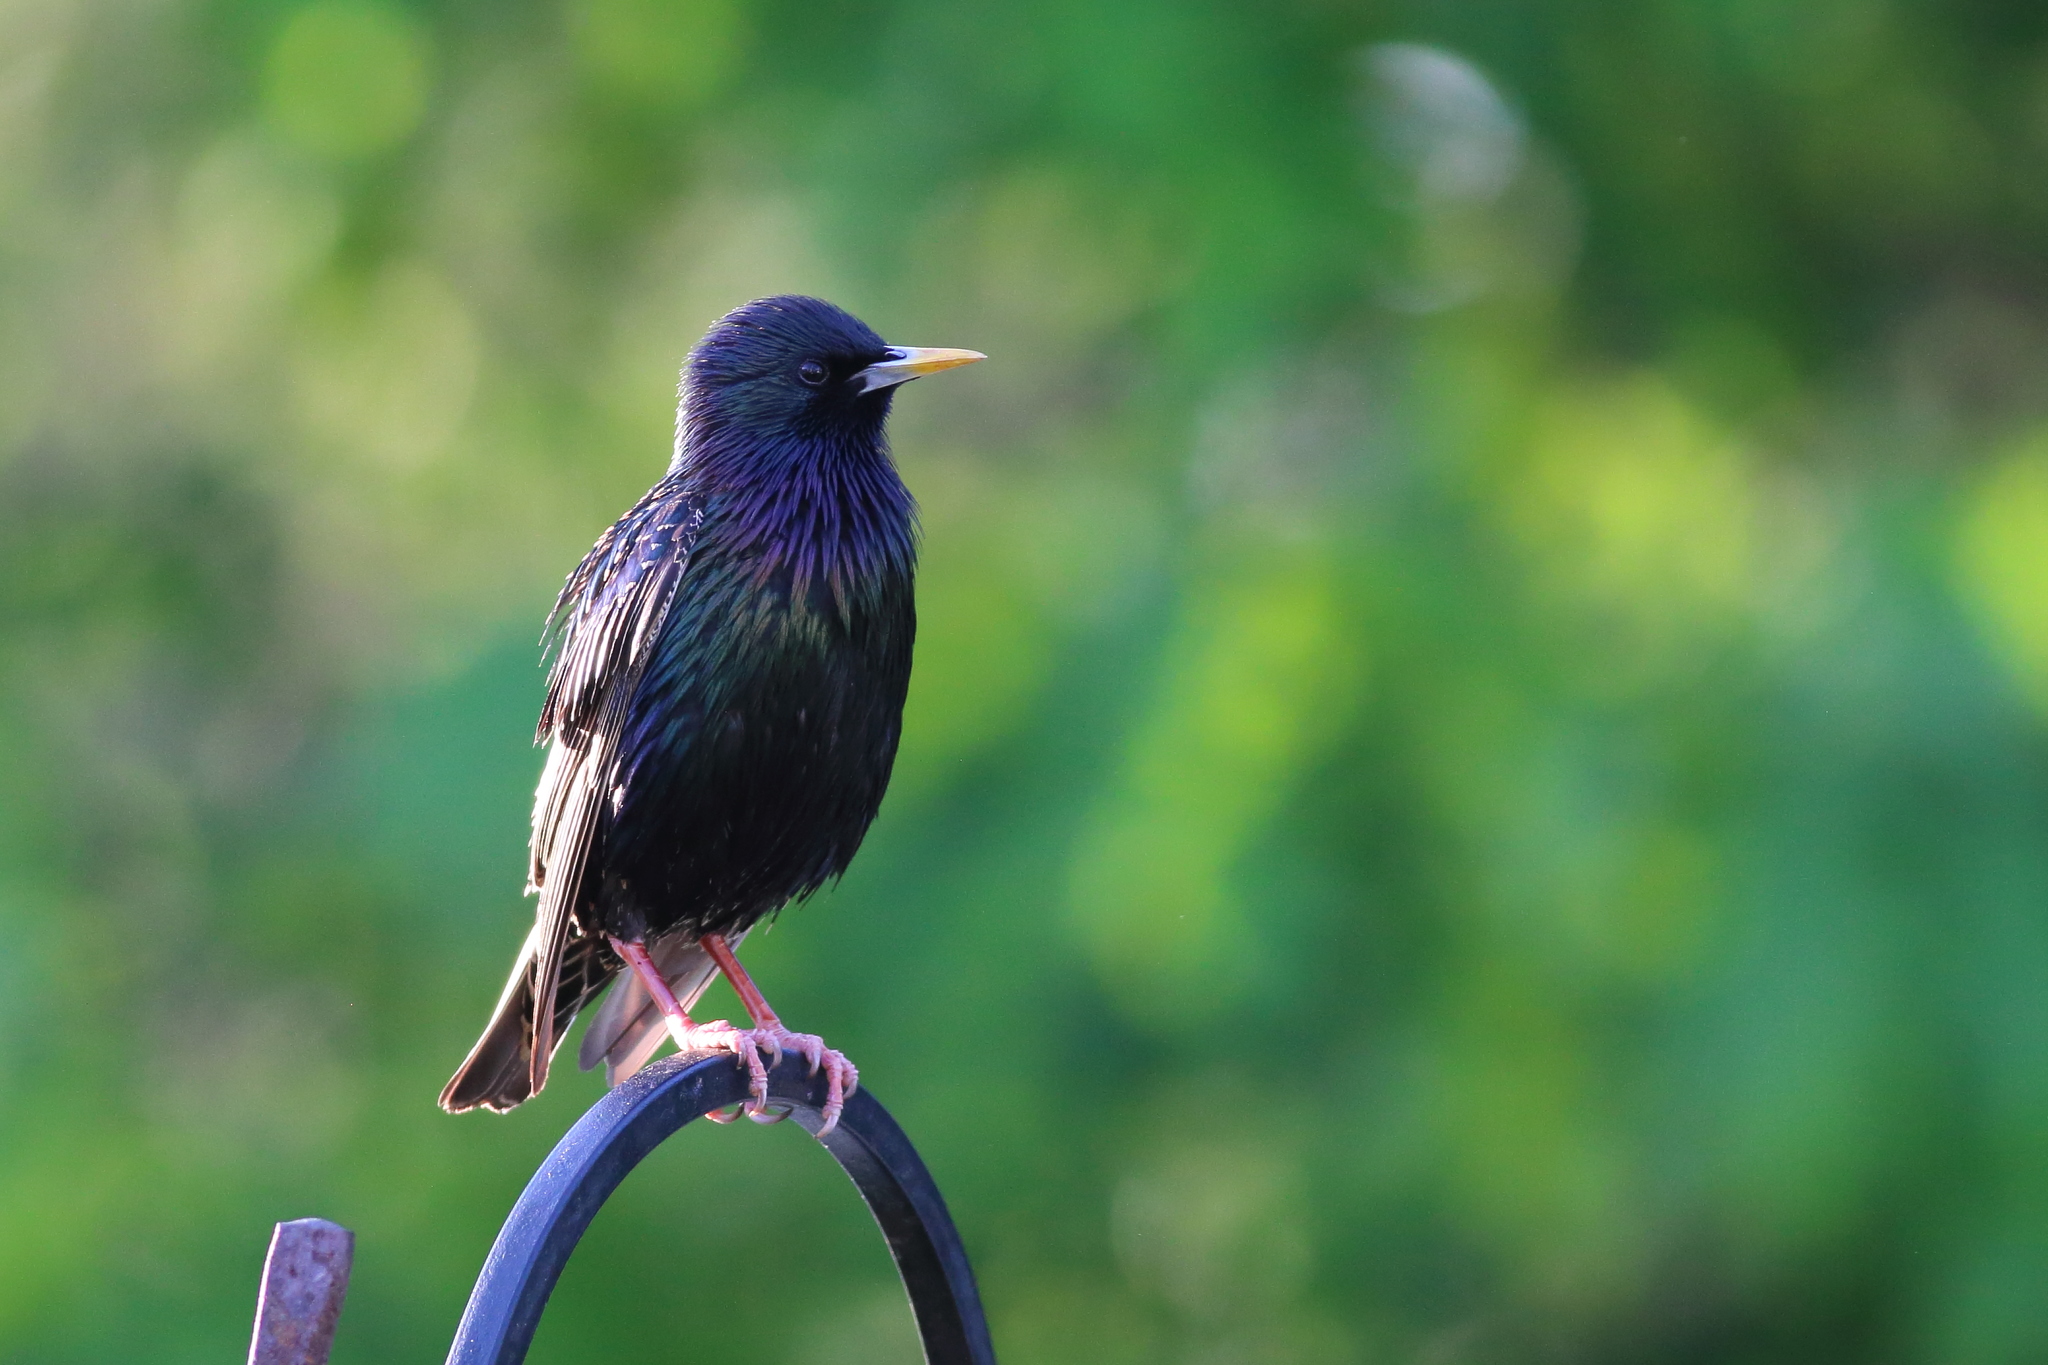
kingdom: Animalia
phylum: Chordata
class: Aves
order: Passeriformes
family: Sturnidae
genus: Sturnus
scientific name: Sturnus vulgaris
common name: Common starling
